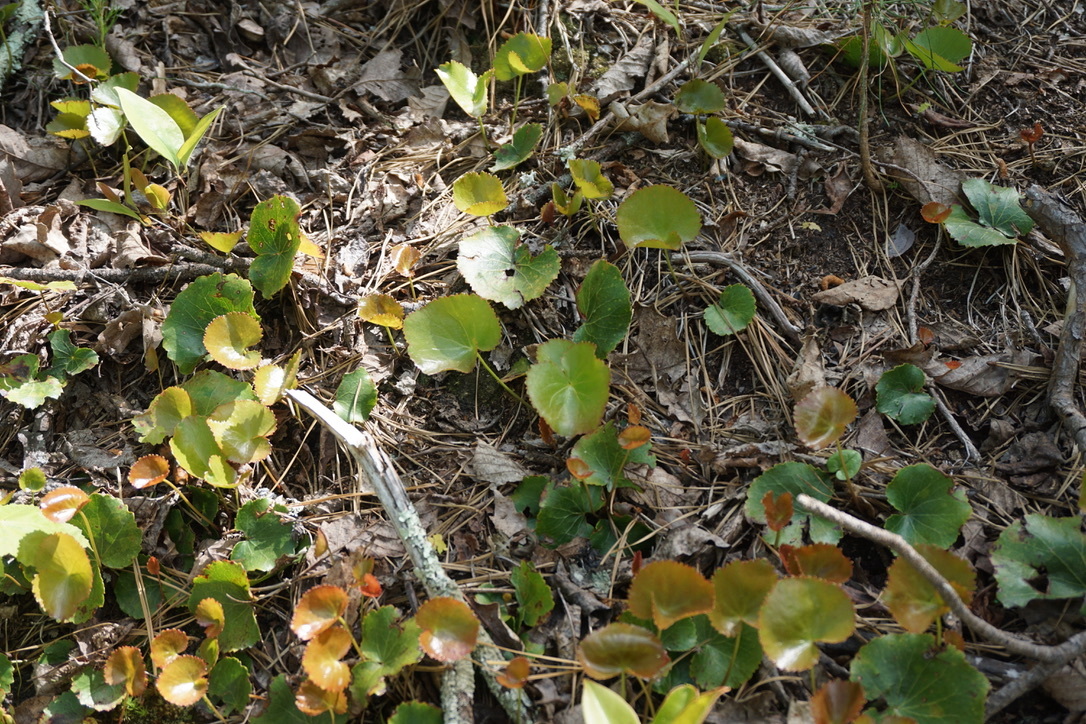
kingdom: Plantae
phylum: Tracheophyta
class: Magnoliopsida
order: Ericales
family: Diapensiaceae
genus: Galax
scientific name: Galax urceolata
